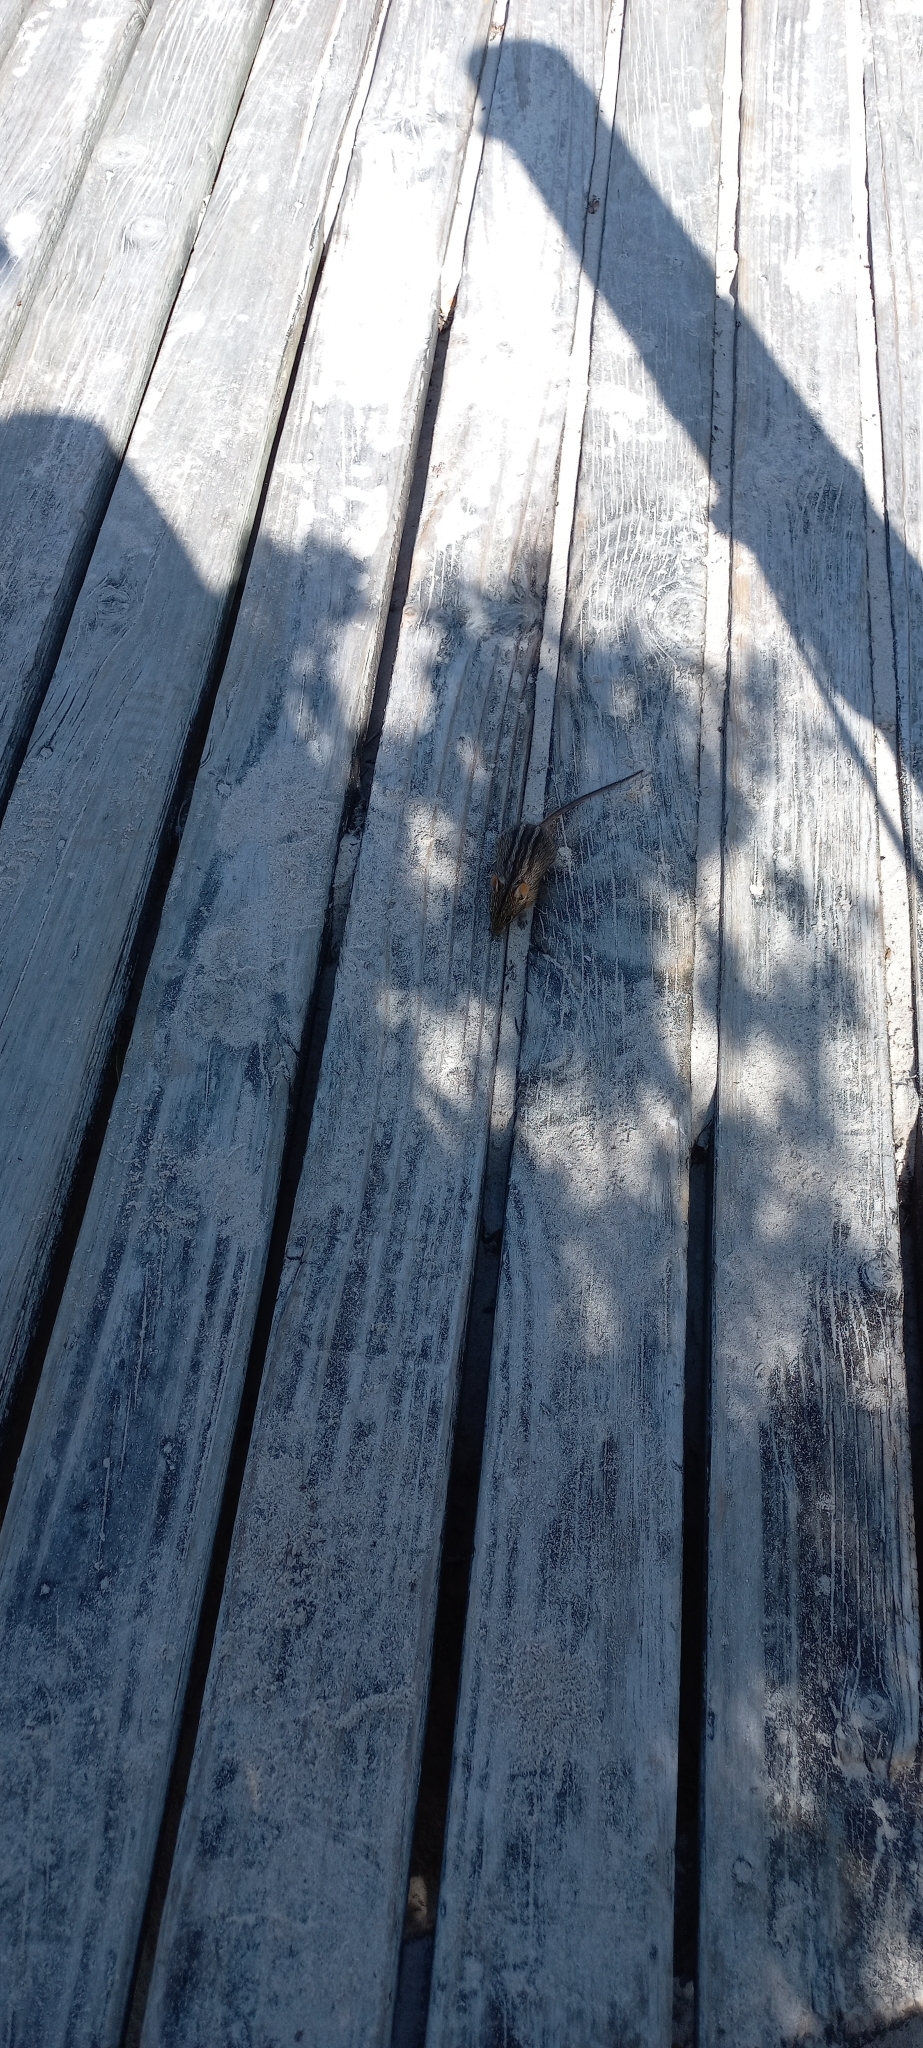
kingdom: Animalia
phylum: Chordata
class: Mammalia
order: Rodentia
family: Muridae
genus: Rhabdomys
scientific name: Rhabdomys pumilio
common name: Xeric four-striped grass rat
